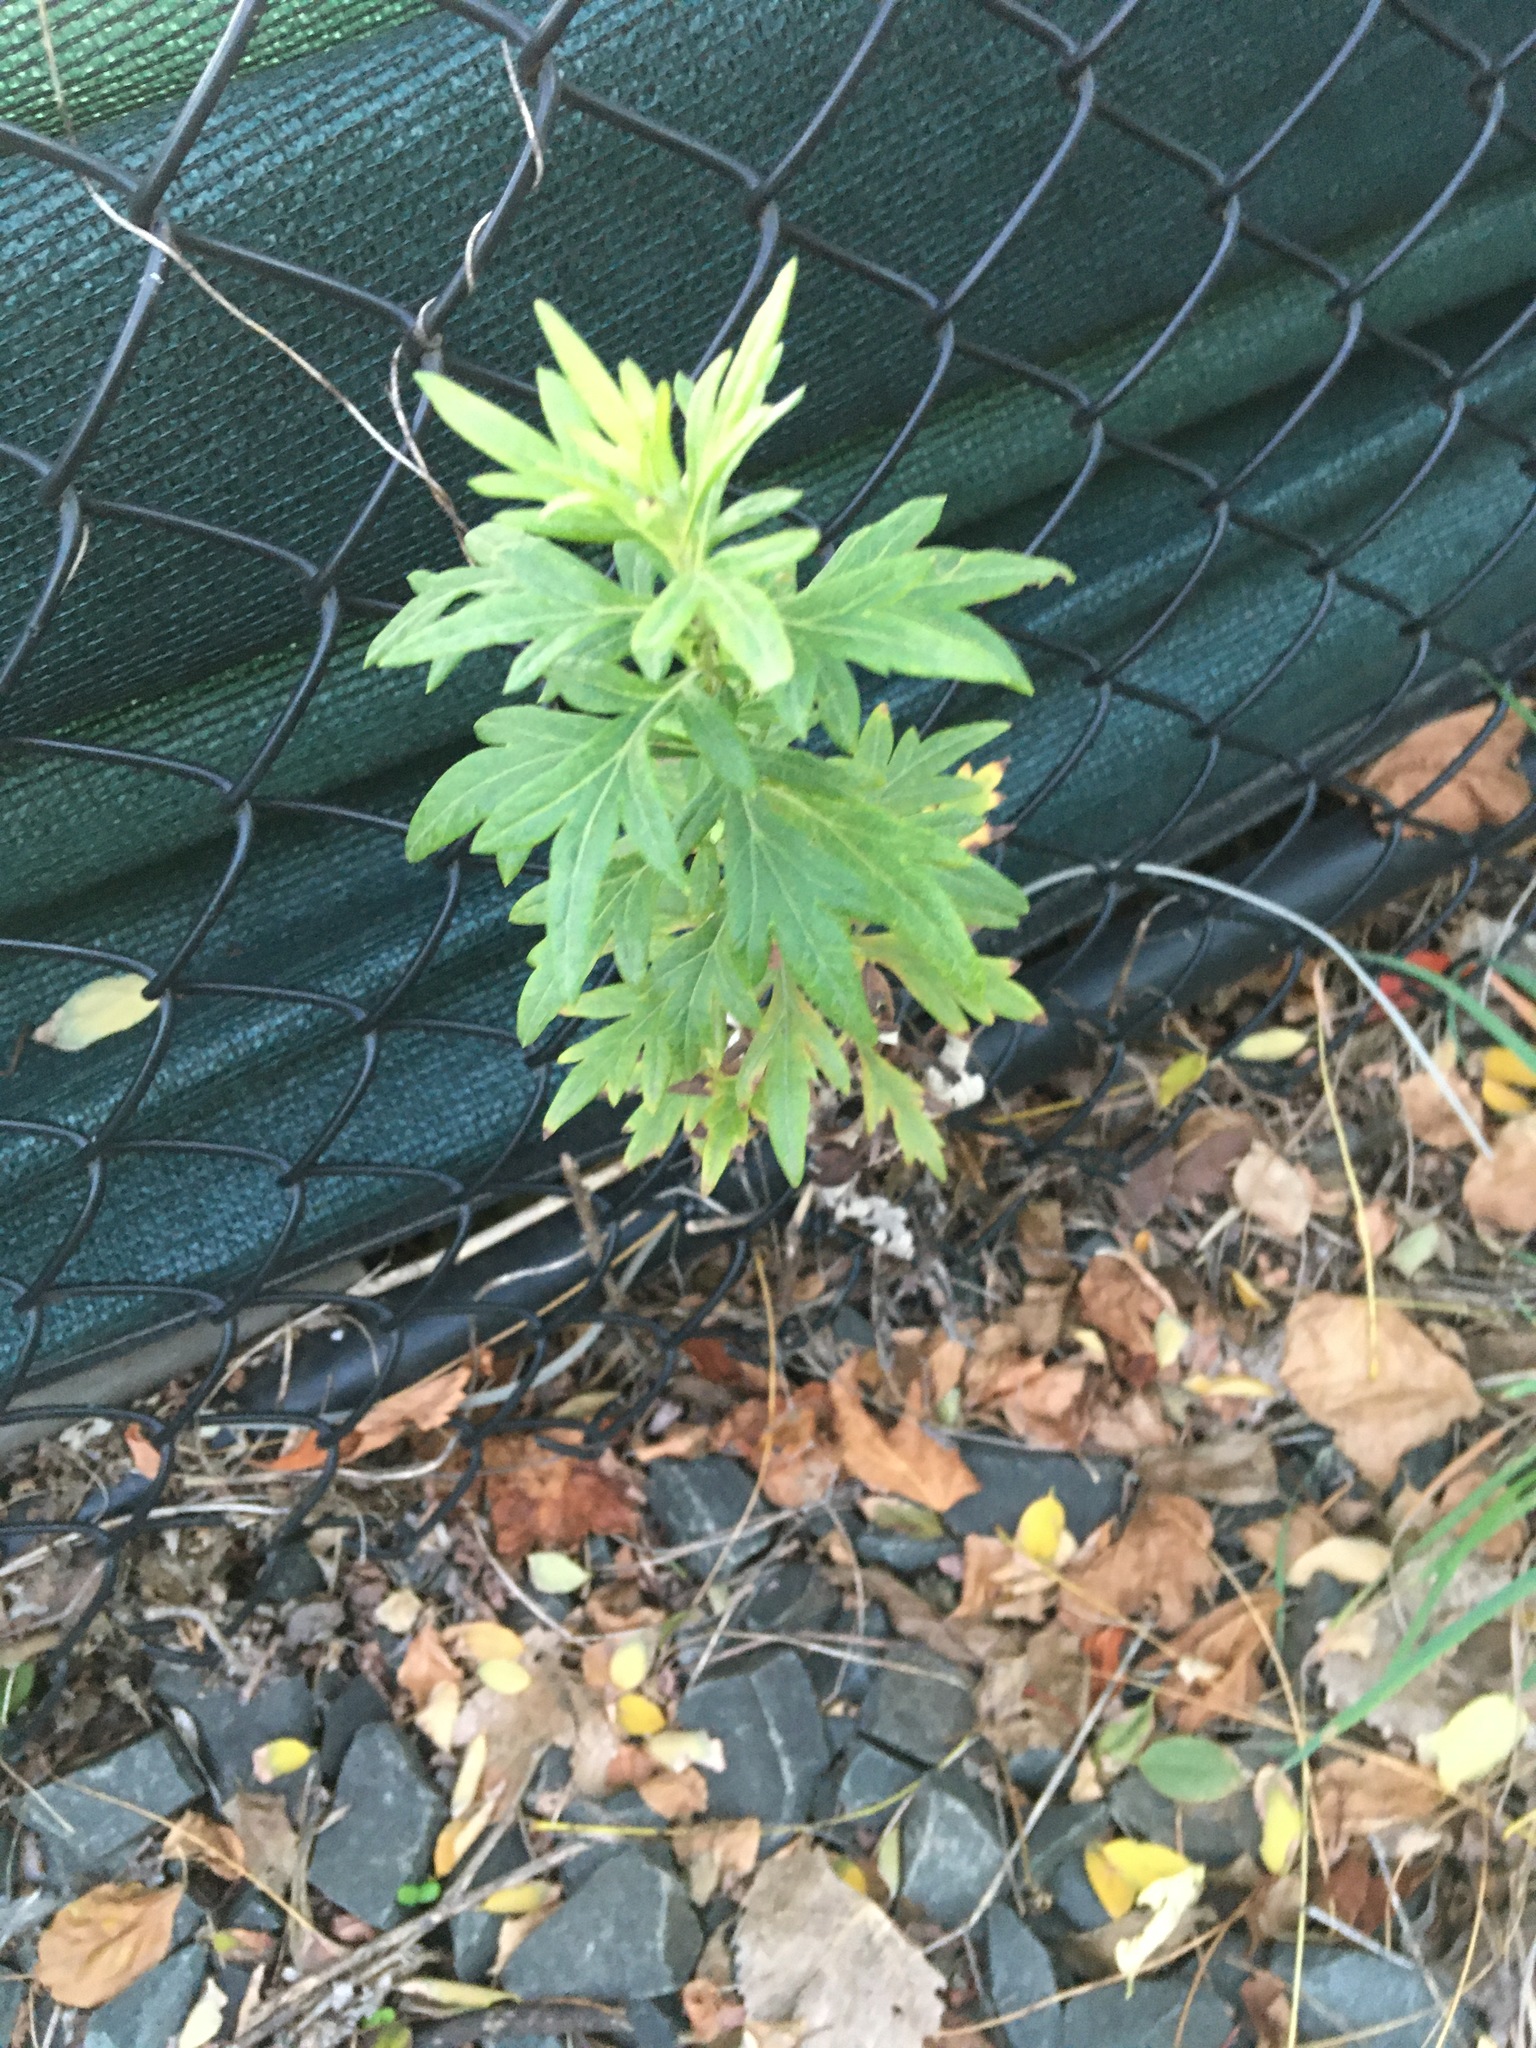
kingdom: Plantae
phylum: Tracheophyta
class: Magnoliopsida
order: Asterales
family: Asteraceae
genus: Artemisia
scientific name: Artemisia vulgaris
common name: Mugwort
